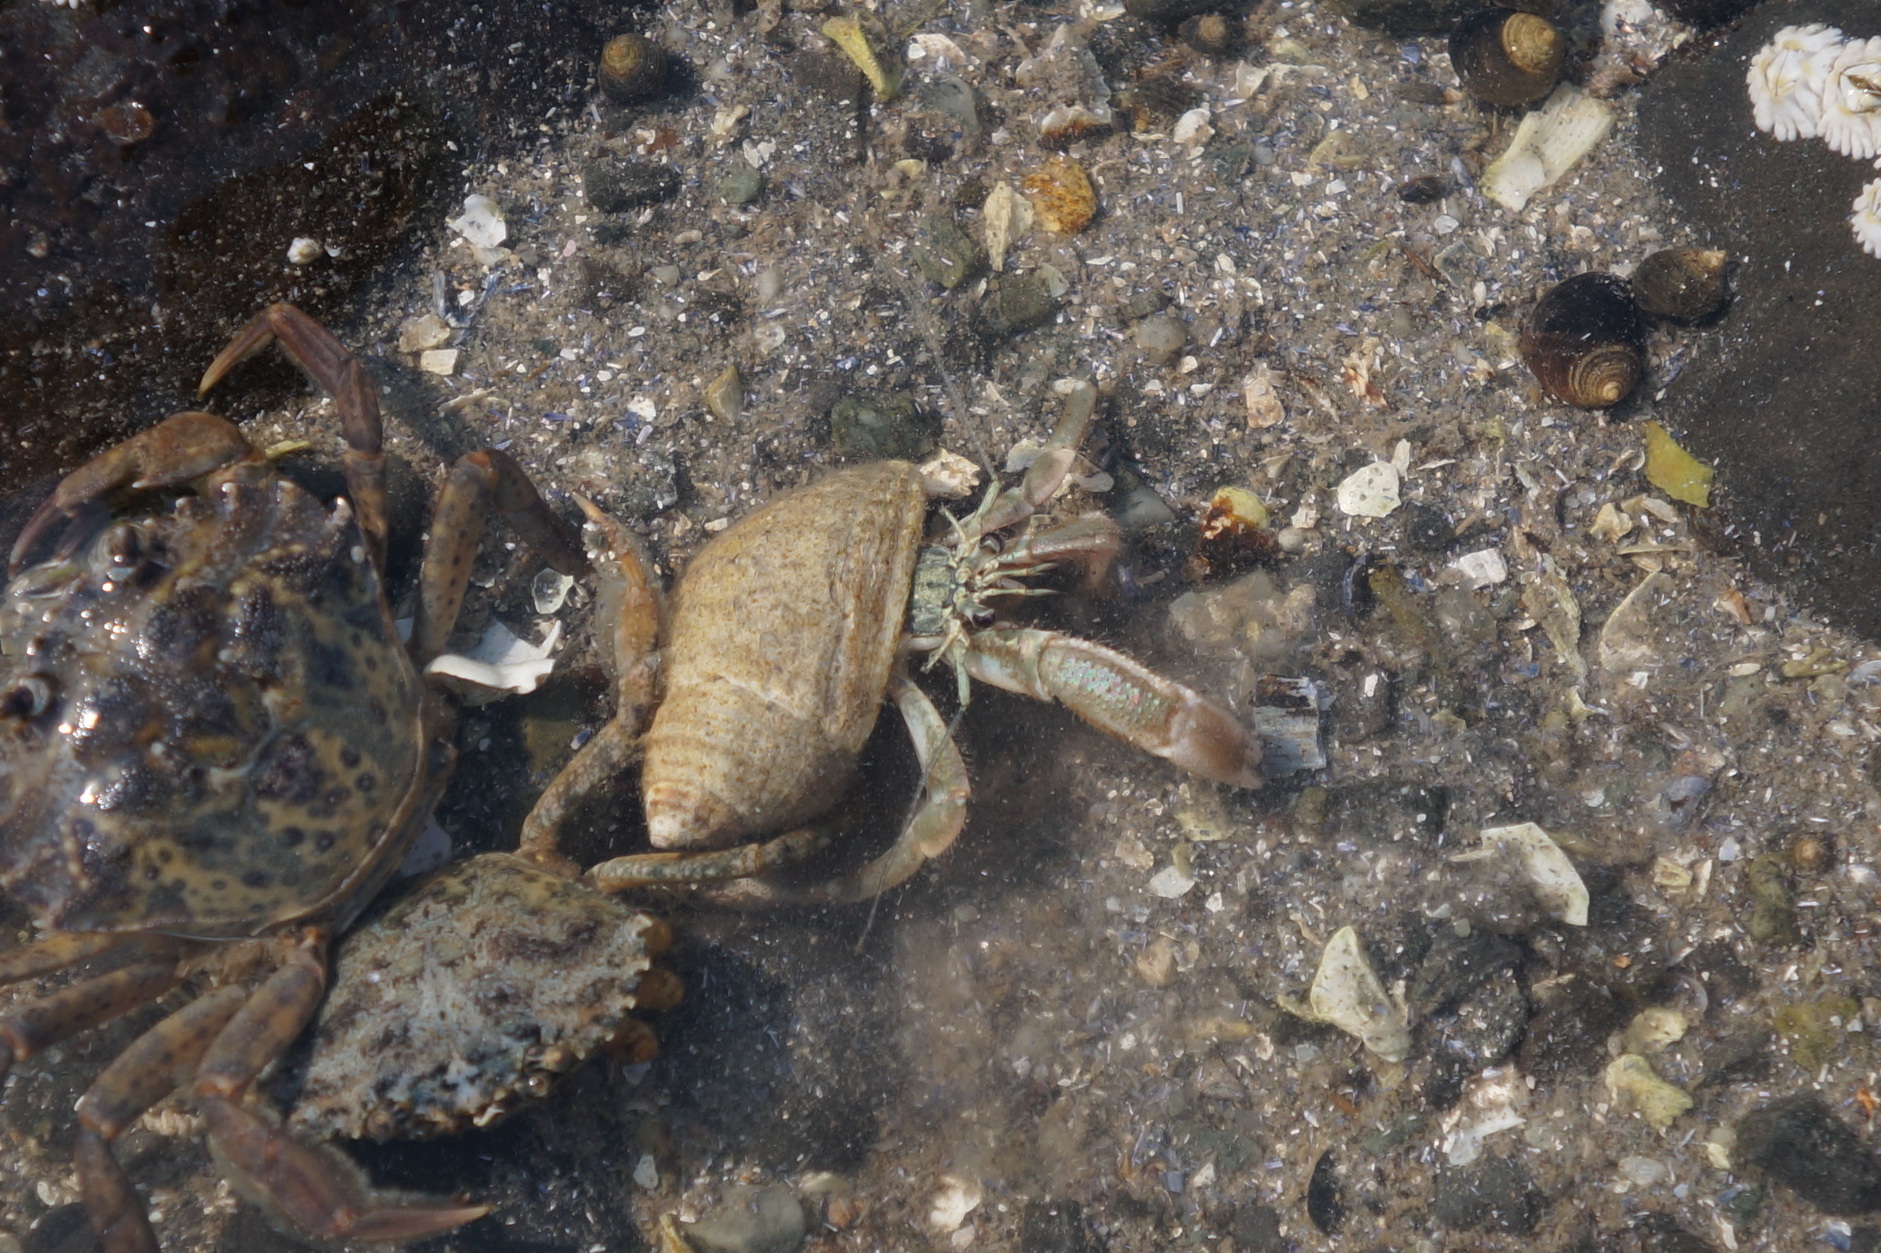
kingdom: Animalia
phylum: Arthropoda
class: Malacostraca
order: Decapoda
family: Paguridae
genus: Pagurus
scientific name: Pagurus longicarpus
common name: Long-armed hermit crab
